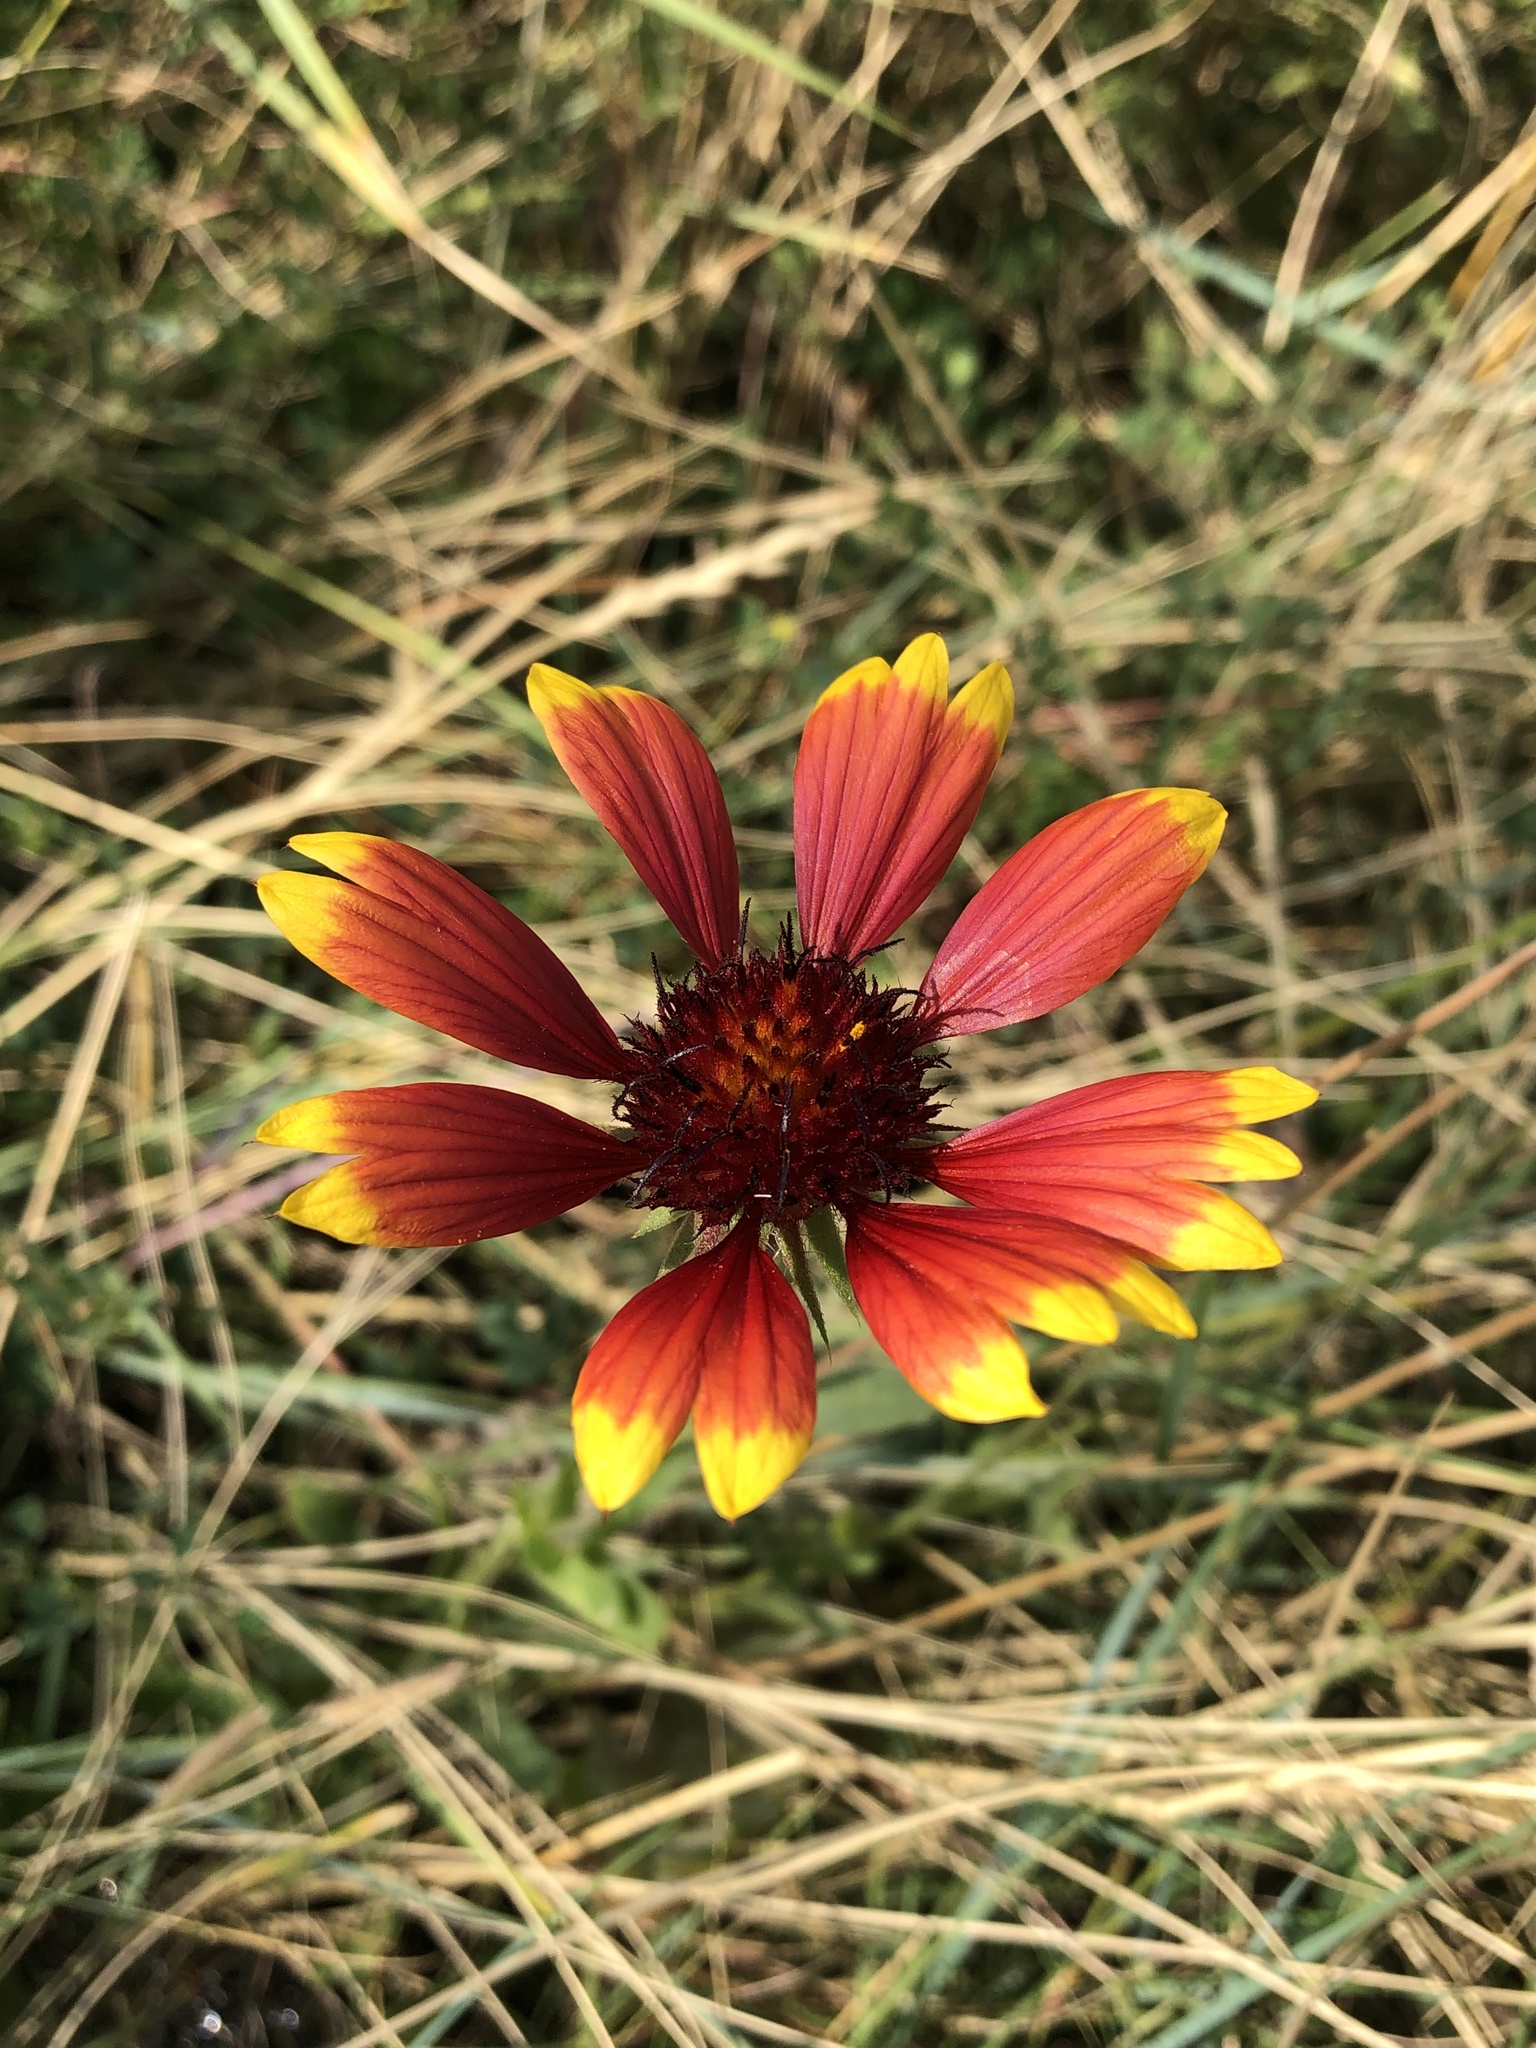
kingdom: Plantae
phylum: Tracheophyta
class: Magnoliopsida
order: Asterales
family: Asteraceae
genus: Gaillardia
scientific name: Gaillardia pulchella
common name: Firewheel
